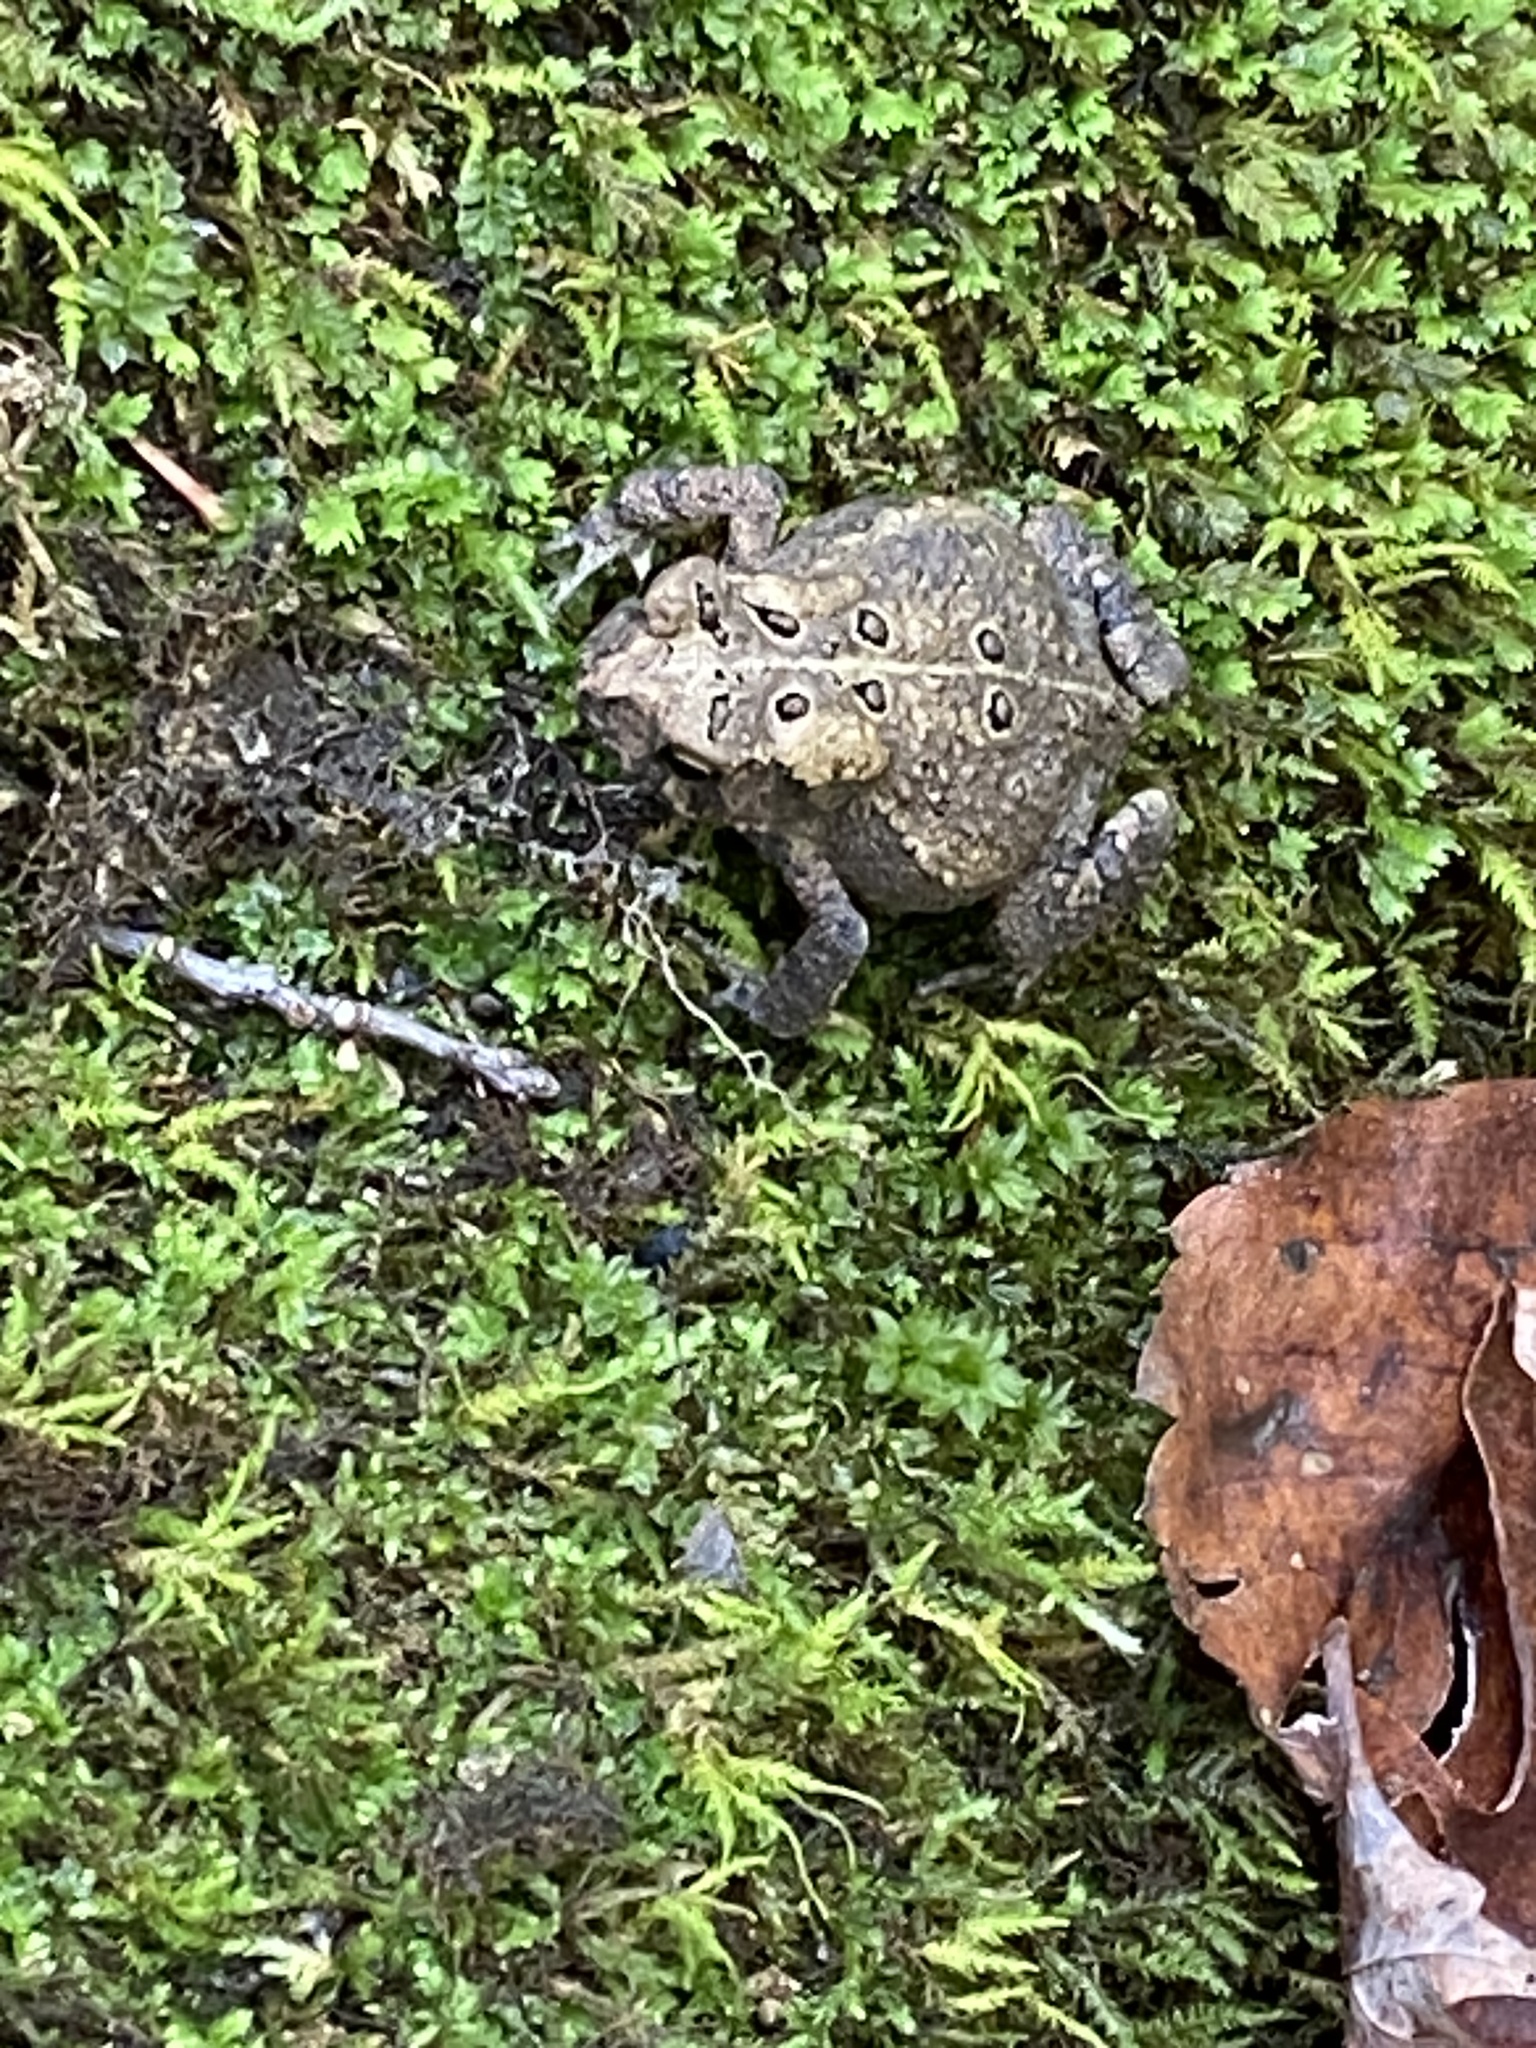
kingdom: Animalia
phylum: Chordata
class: Amphibia
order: Anura
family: Bufonidae
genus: Anaxyrus
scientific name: Anaxyrus americanus
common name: American toad
